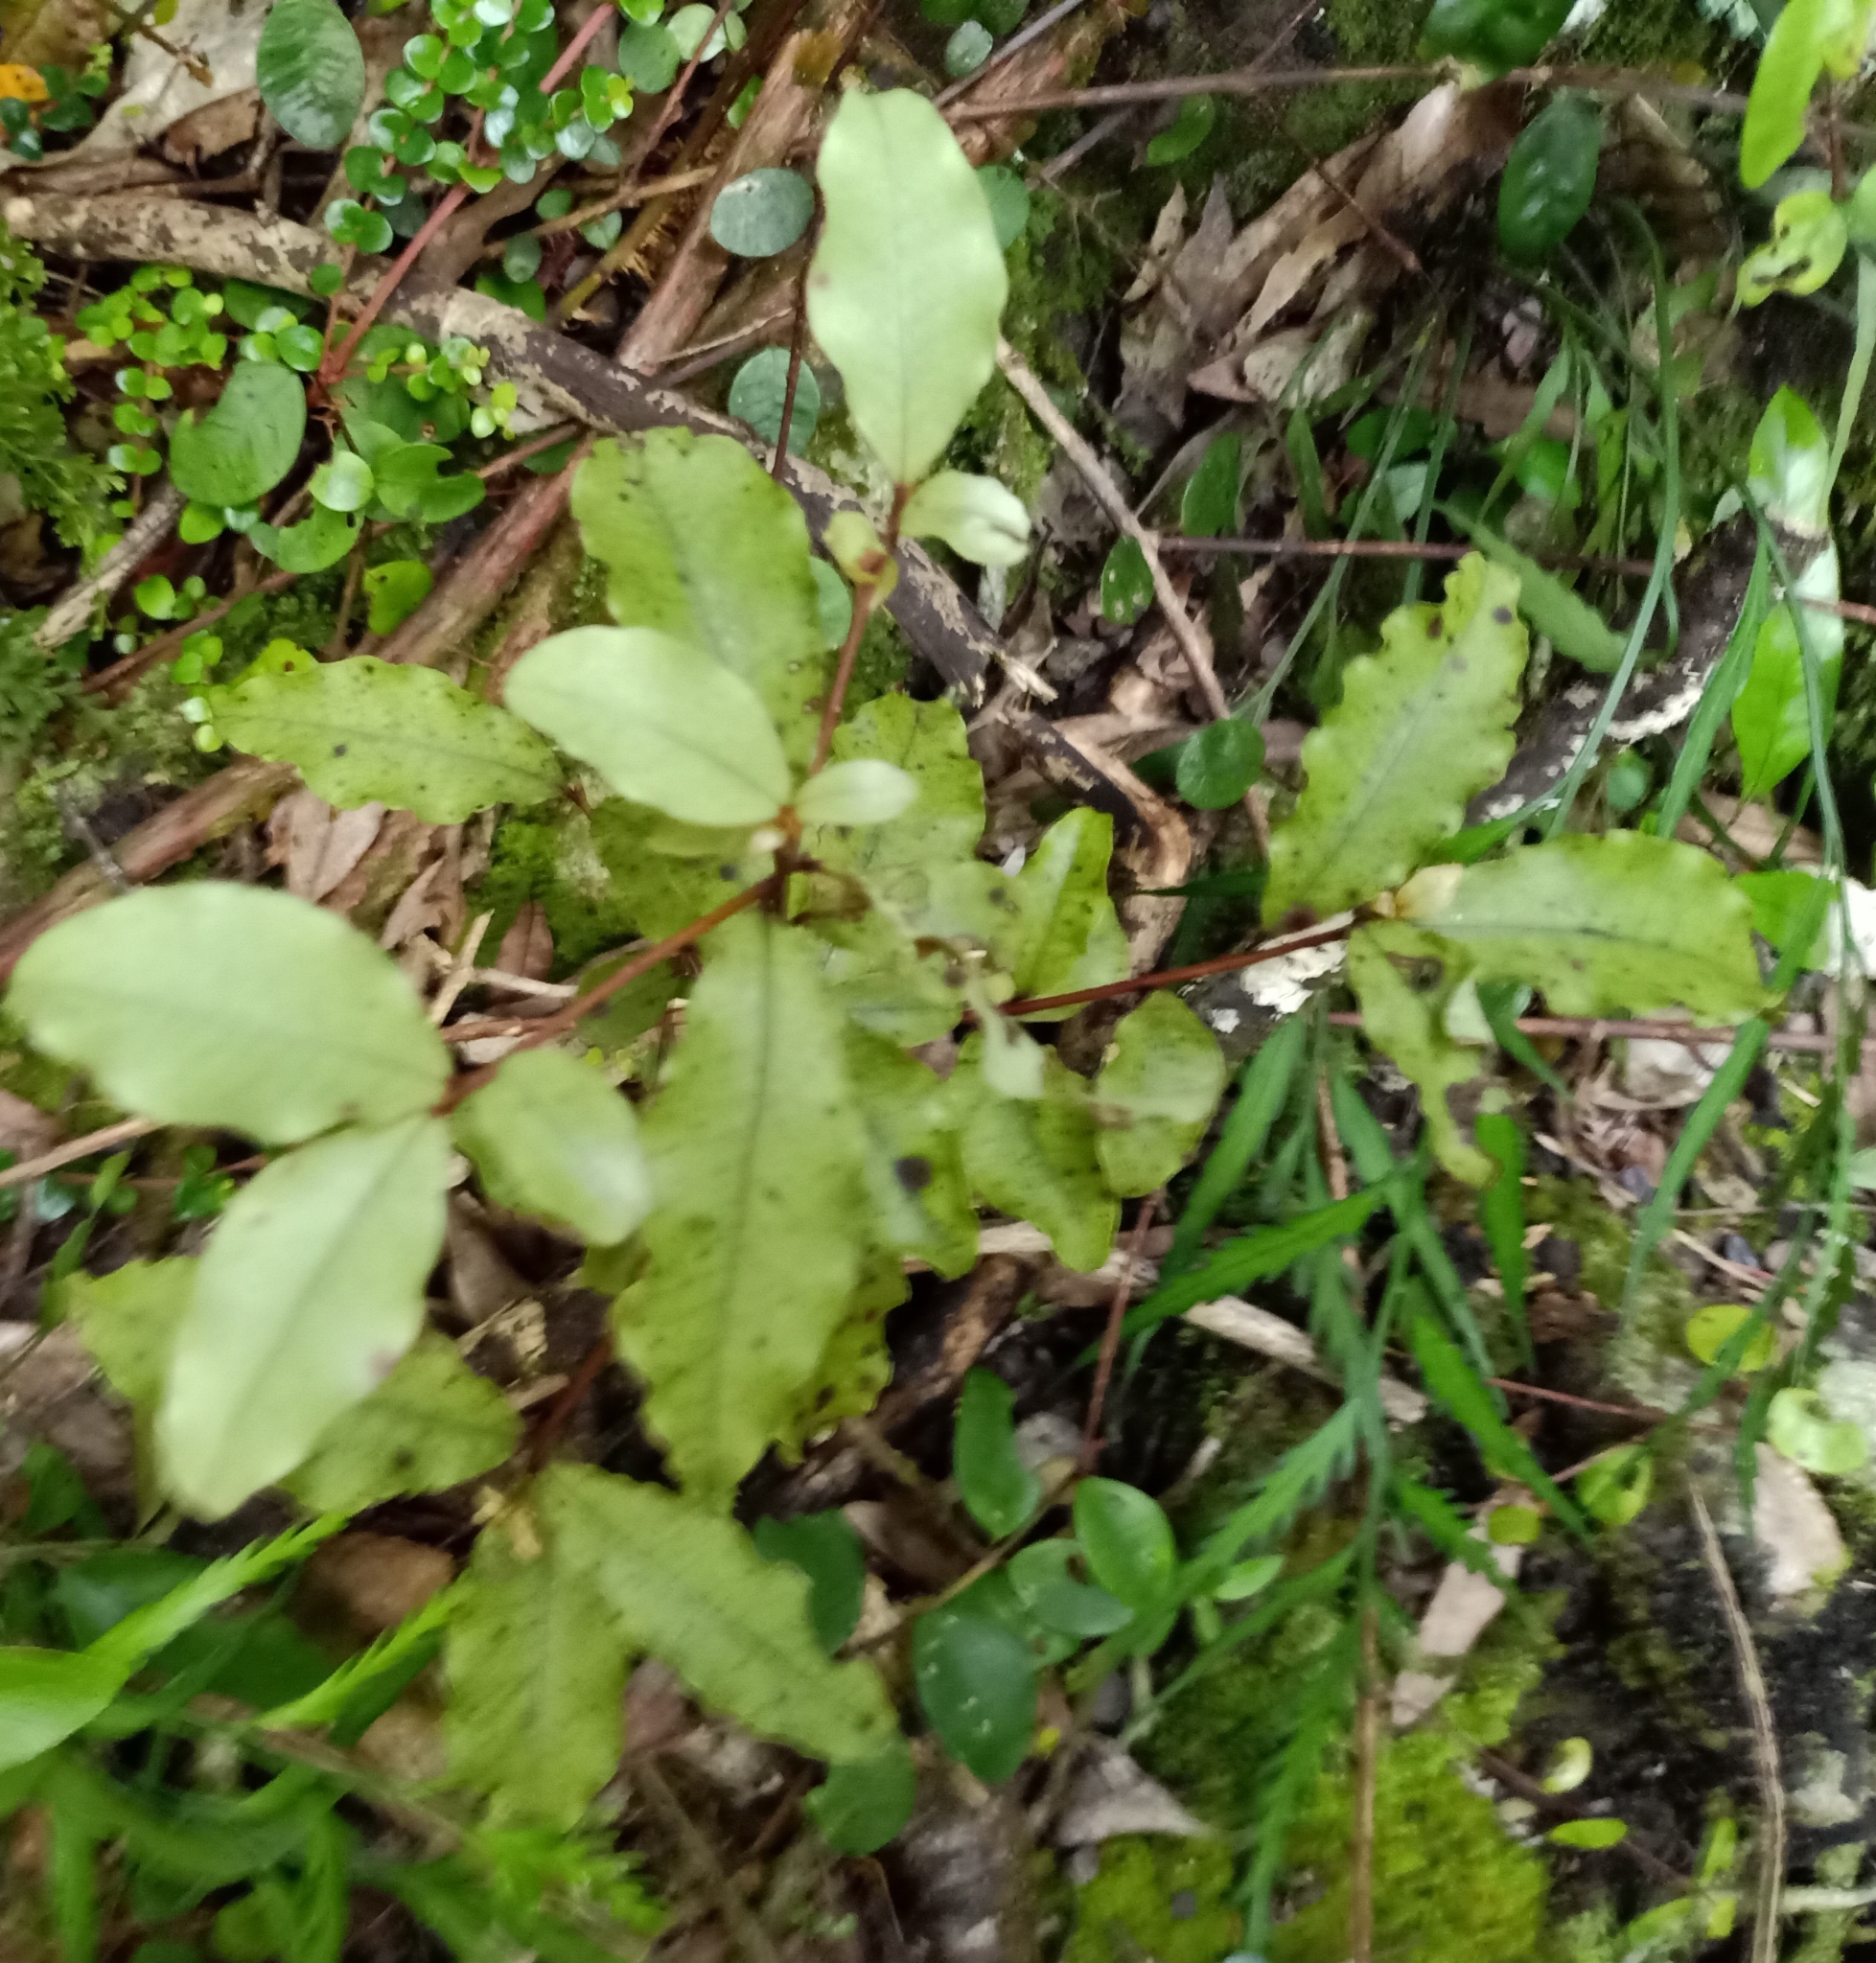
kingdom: Plantae
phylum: Tracheophyta
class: Magnoliopsida
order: Ericales
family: Primulaceae
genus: Myrsine
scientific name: Myrsine australis
